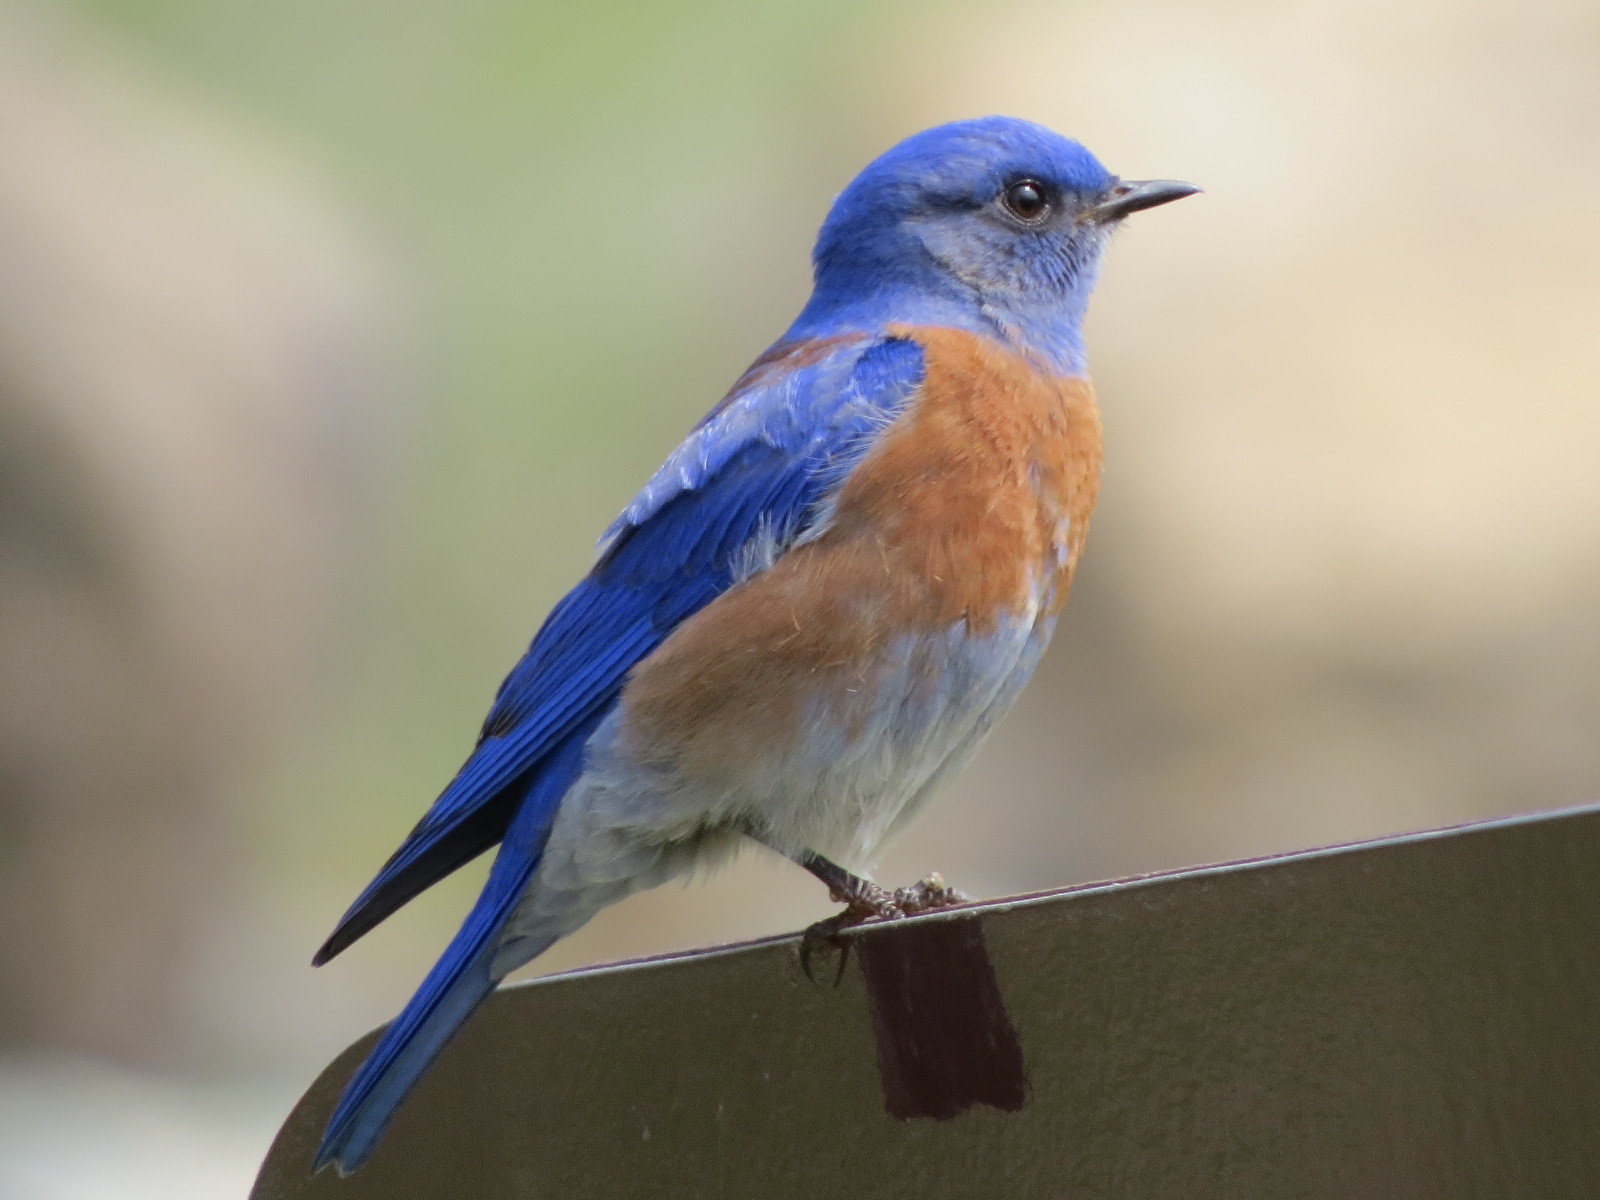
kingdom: Animalia
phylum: Chordata
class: Aves
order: Passeriformes
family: Turdidae
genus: Sialia
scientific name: Sialia mexicana
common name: Western bluebird
